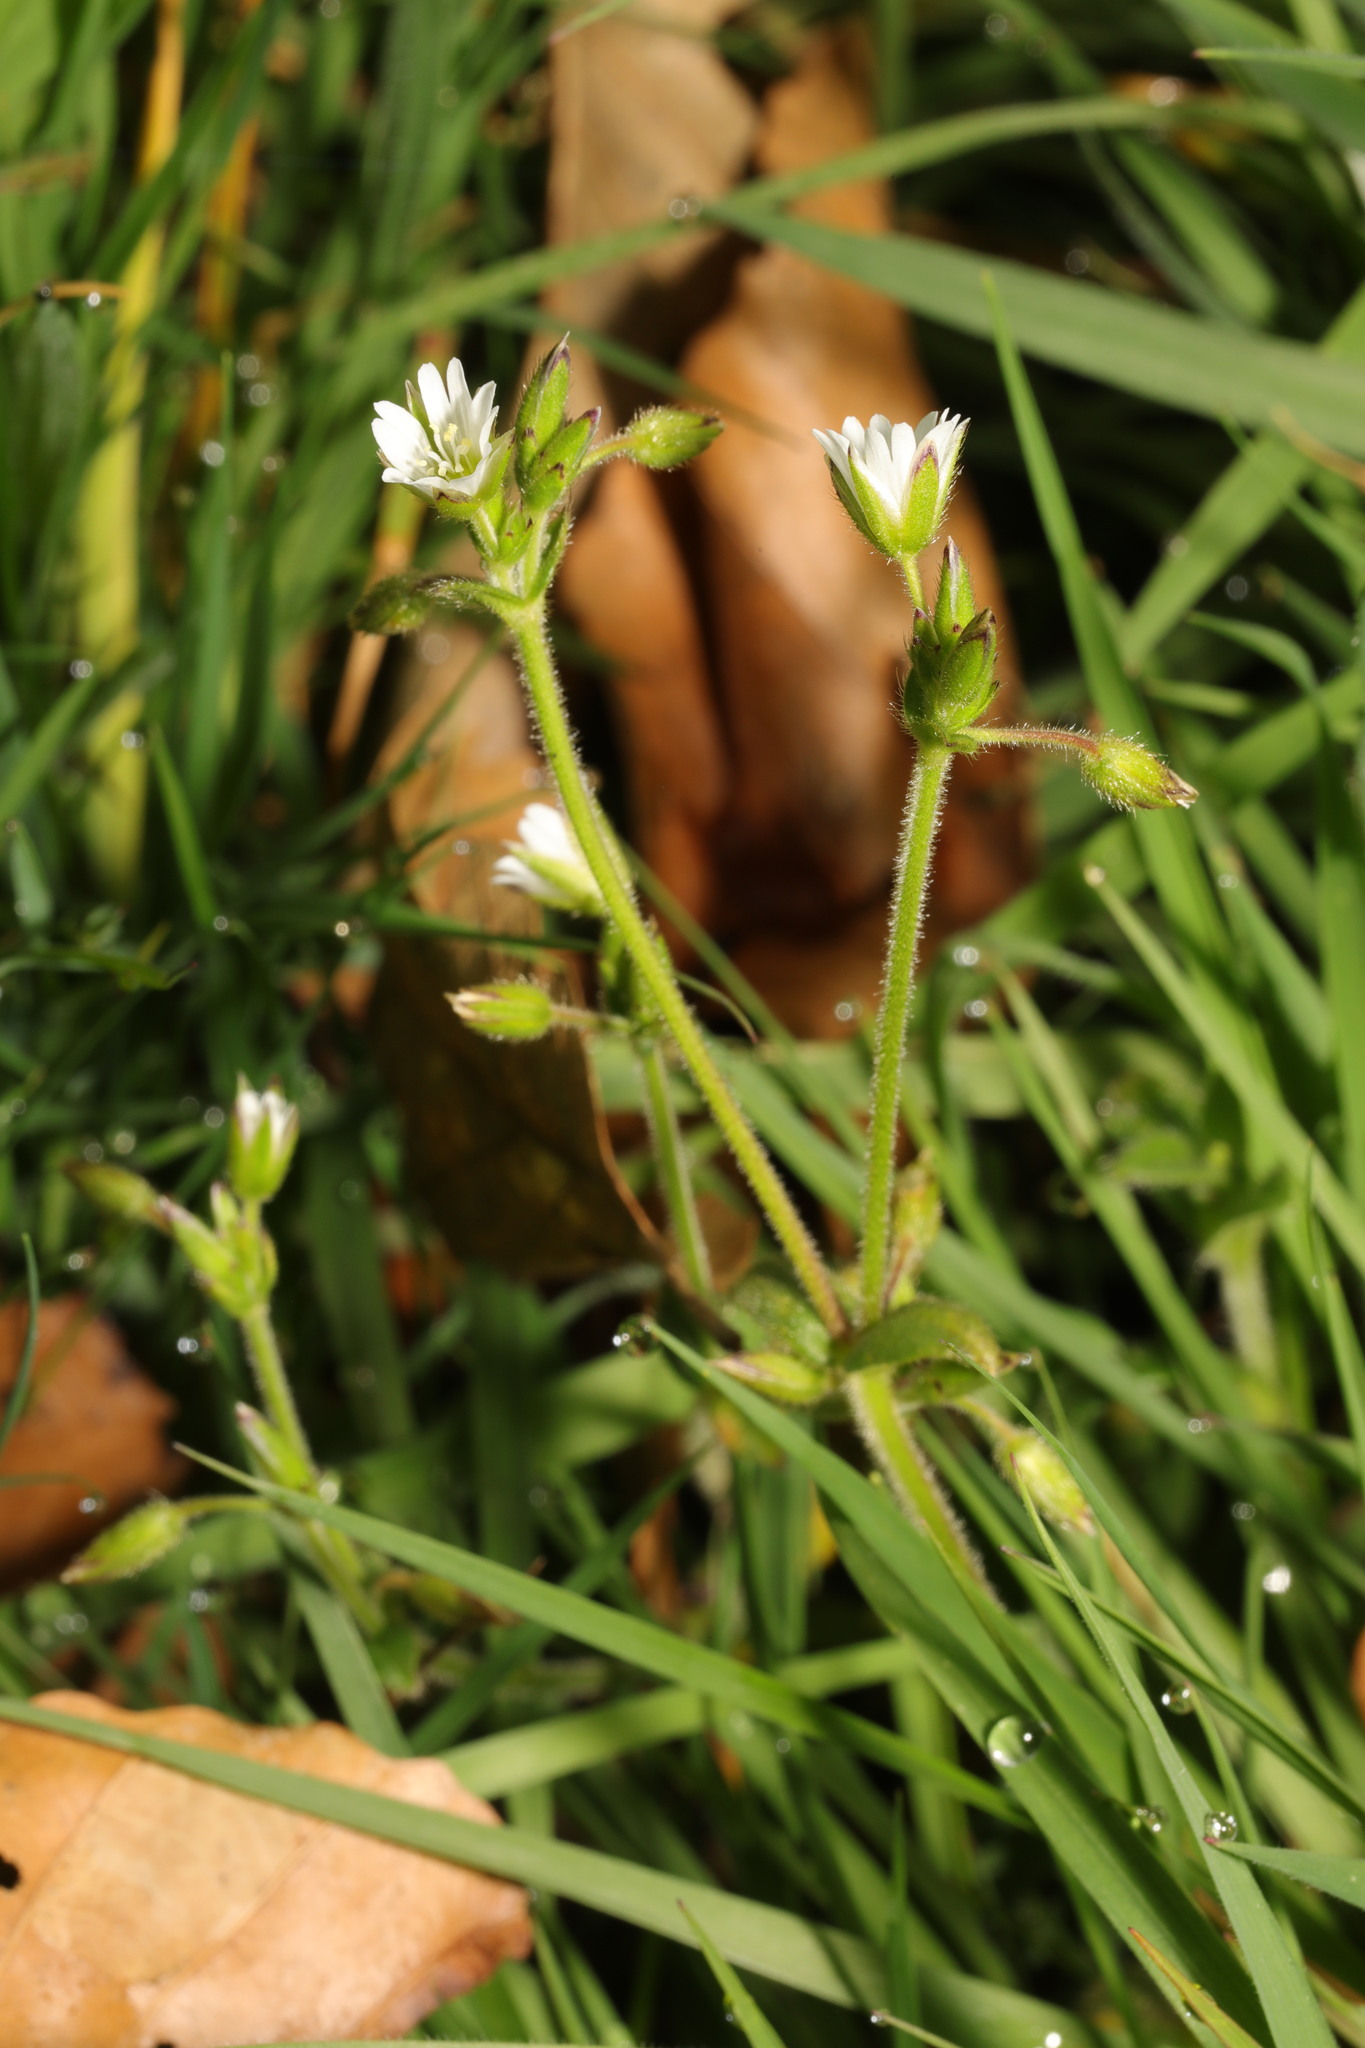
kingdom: Plantae
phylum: Tracheophyta
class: Magnoliopsida
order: Caryophyllales
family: Caryophyllaceae
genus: Cerastium
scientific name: Cerastium fontanum
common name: Common mouse-ear
